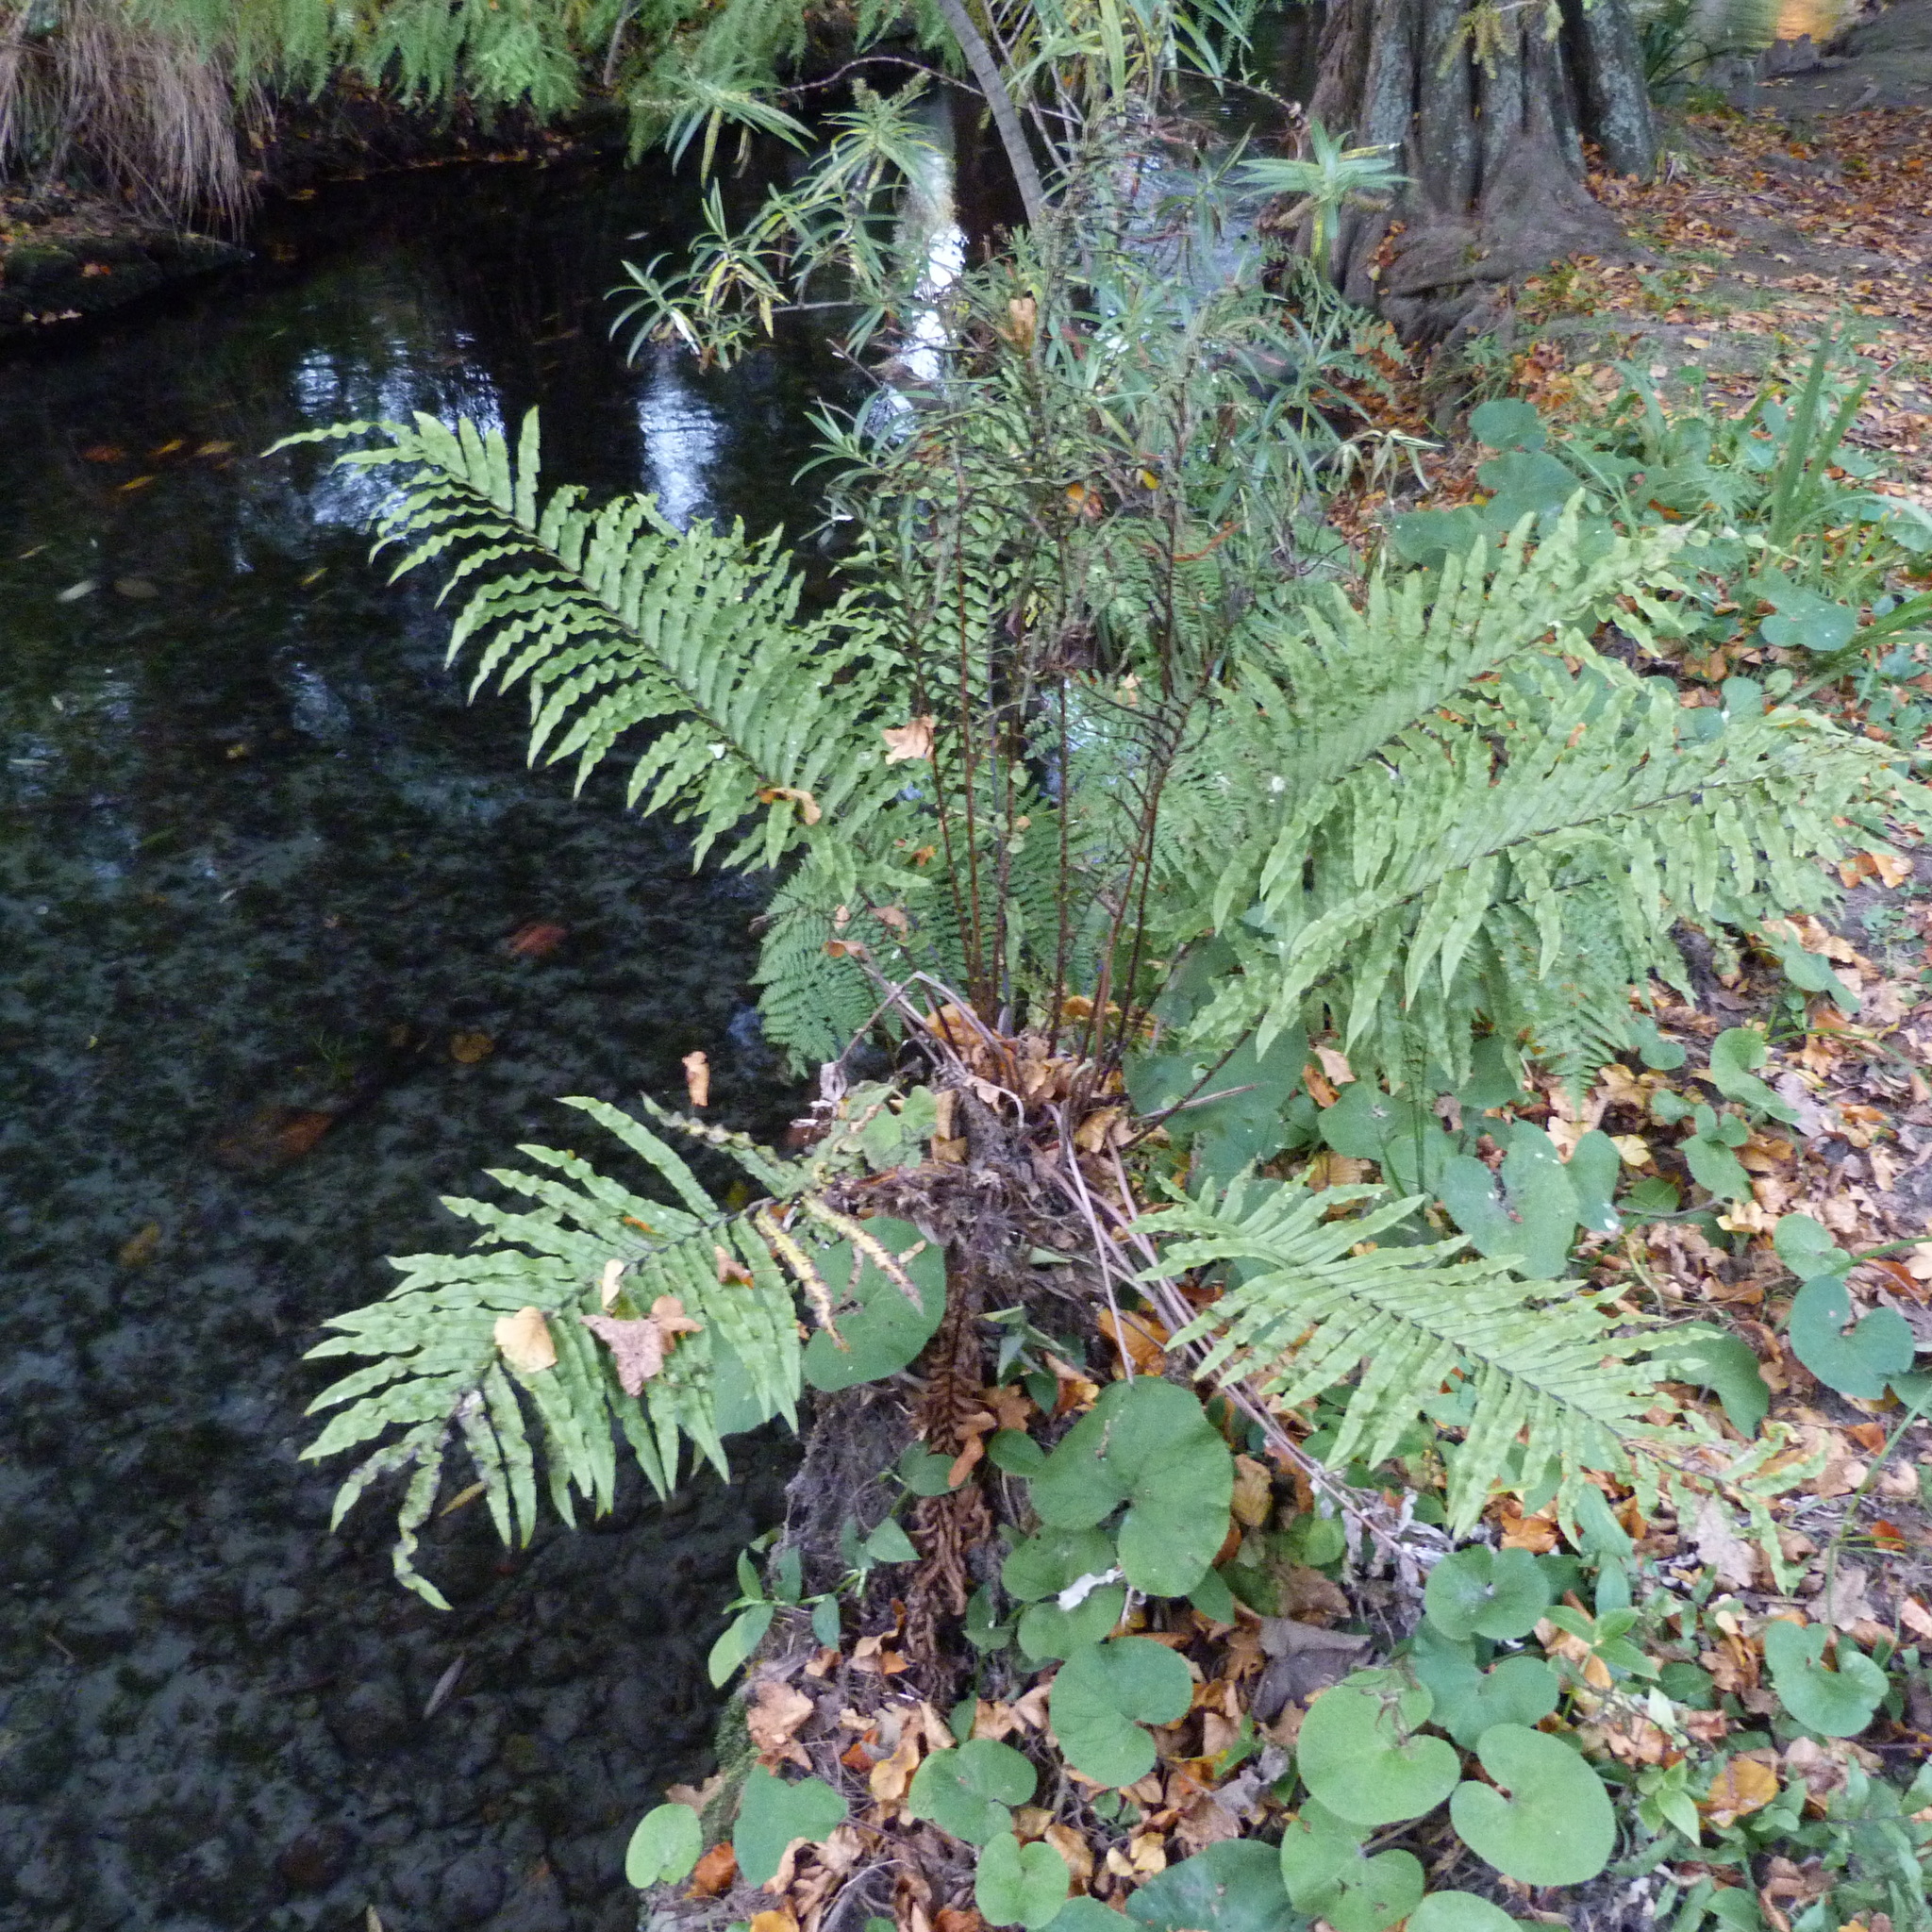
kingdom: Plantae
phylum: Tracheophyta
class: Polypodiopsida
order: Polypodiales
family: Blechnaceae
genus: Parablechnum
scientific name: Parablechnum minus
